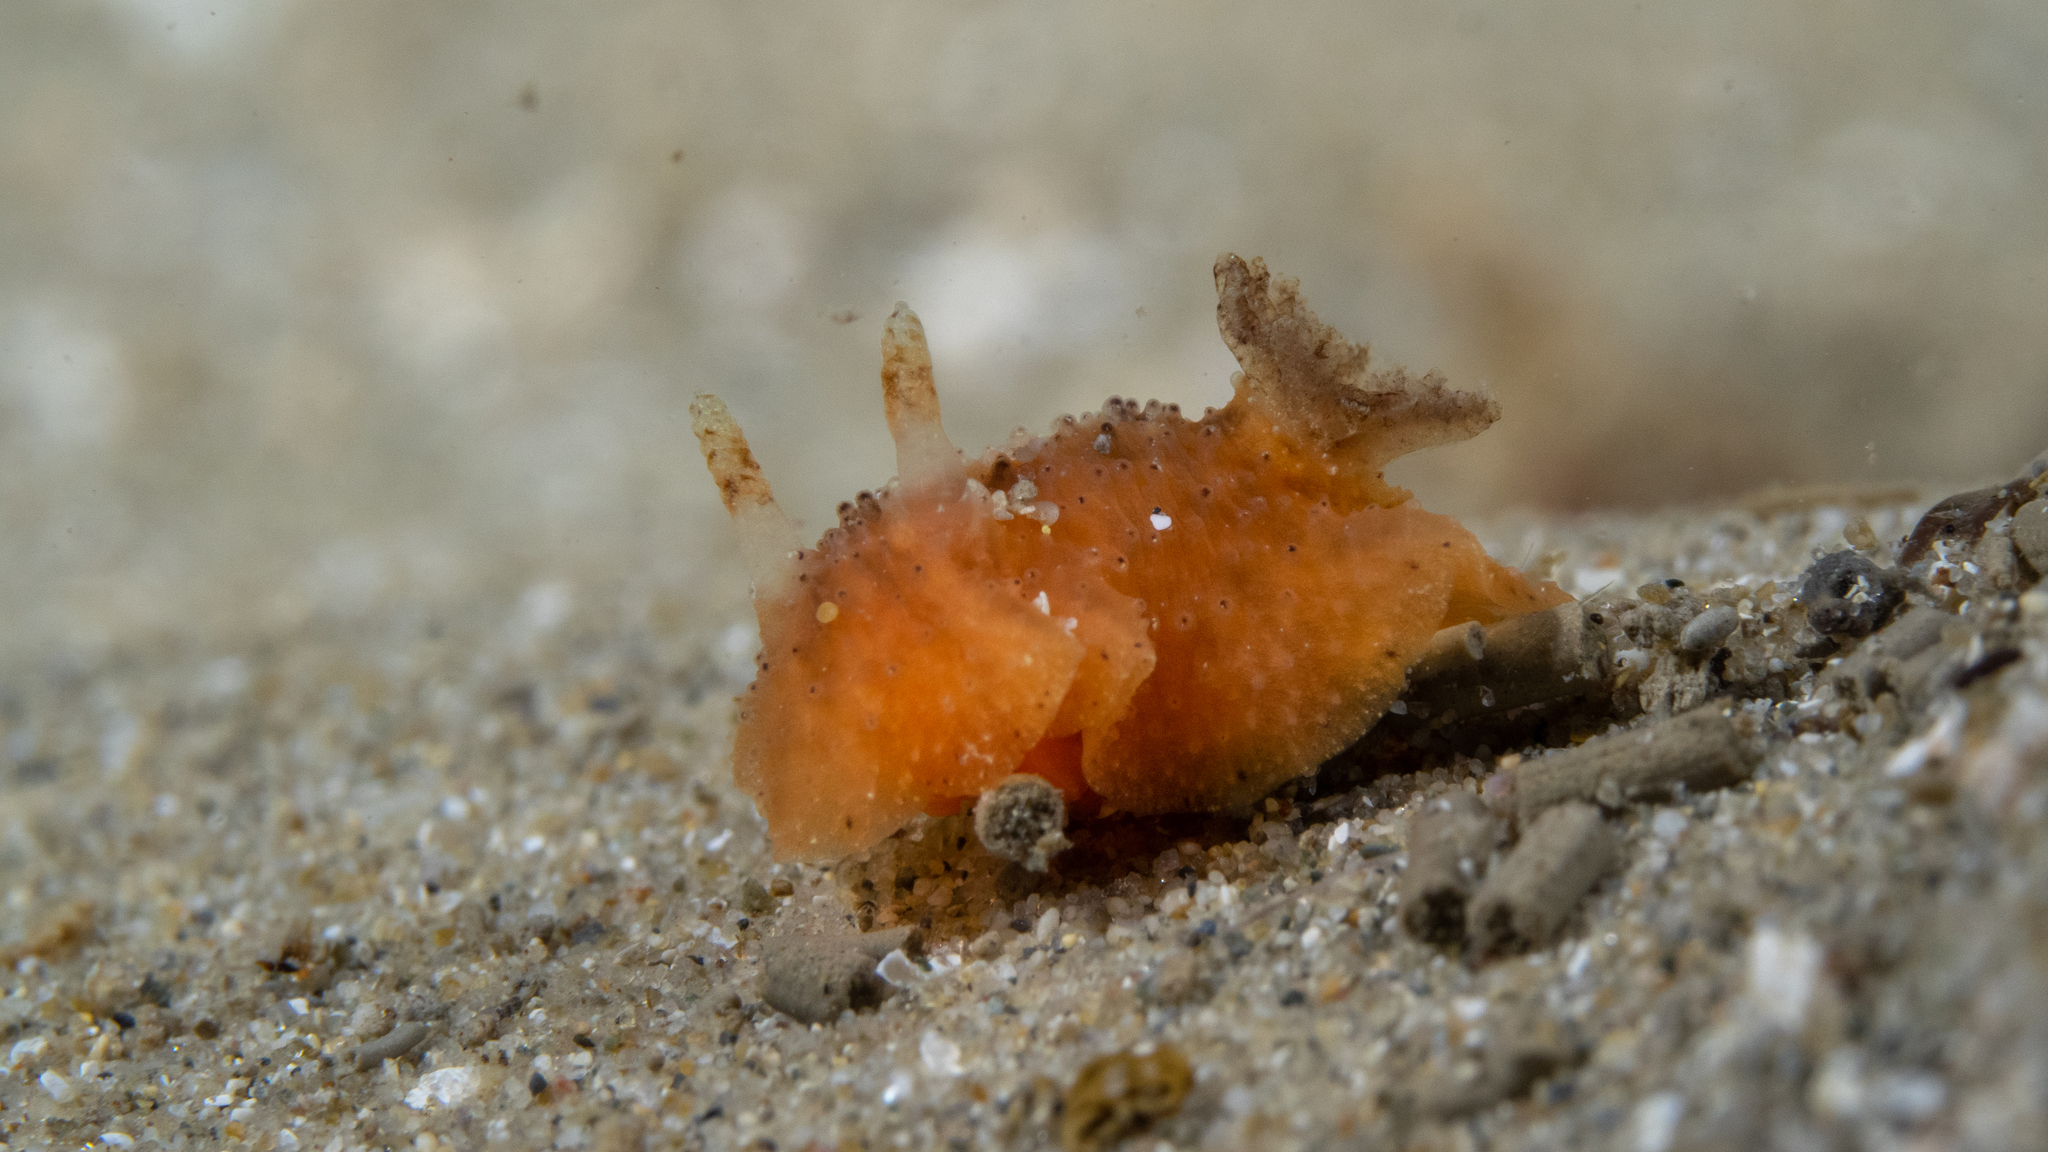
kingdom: Animalia
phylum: Mollusca
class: Gastropoda
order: Nudibranchia
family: Dorididae
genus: Doris
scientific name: Doris cameroni
